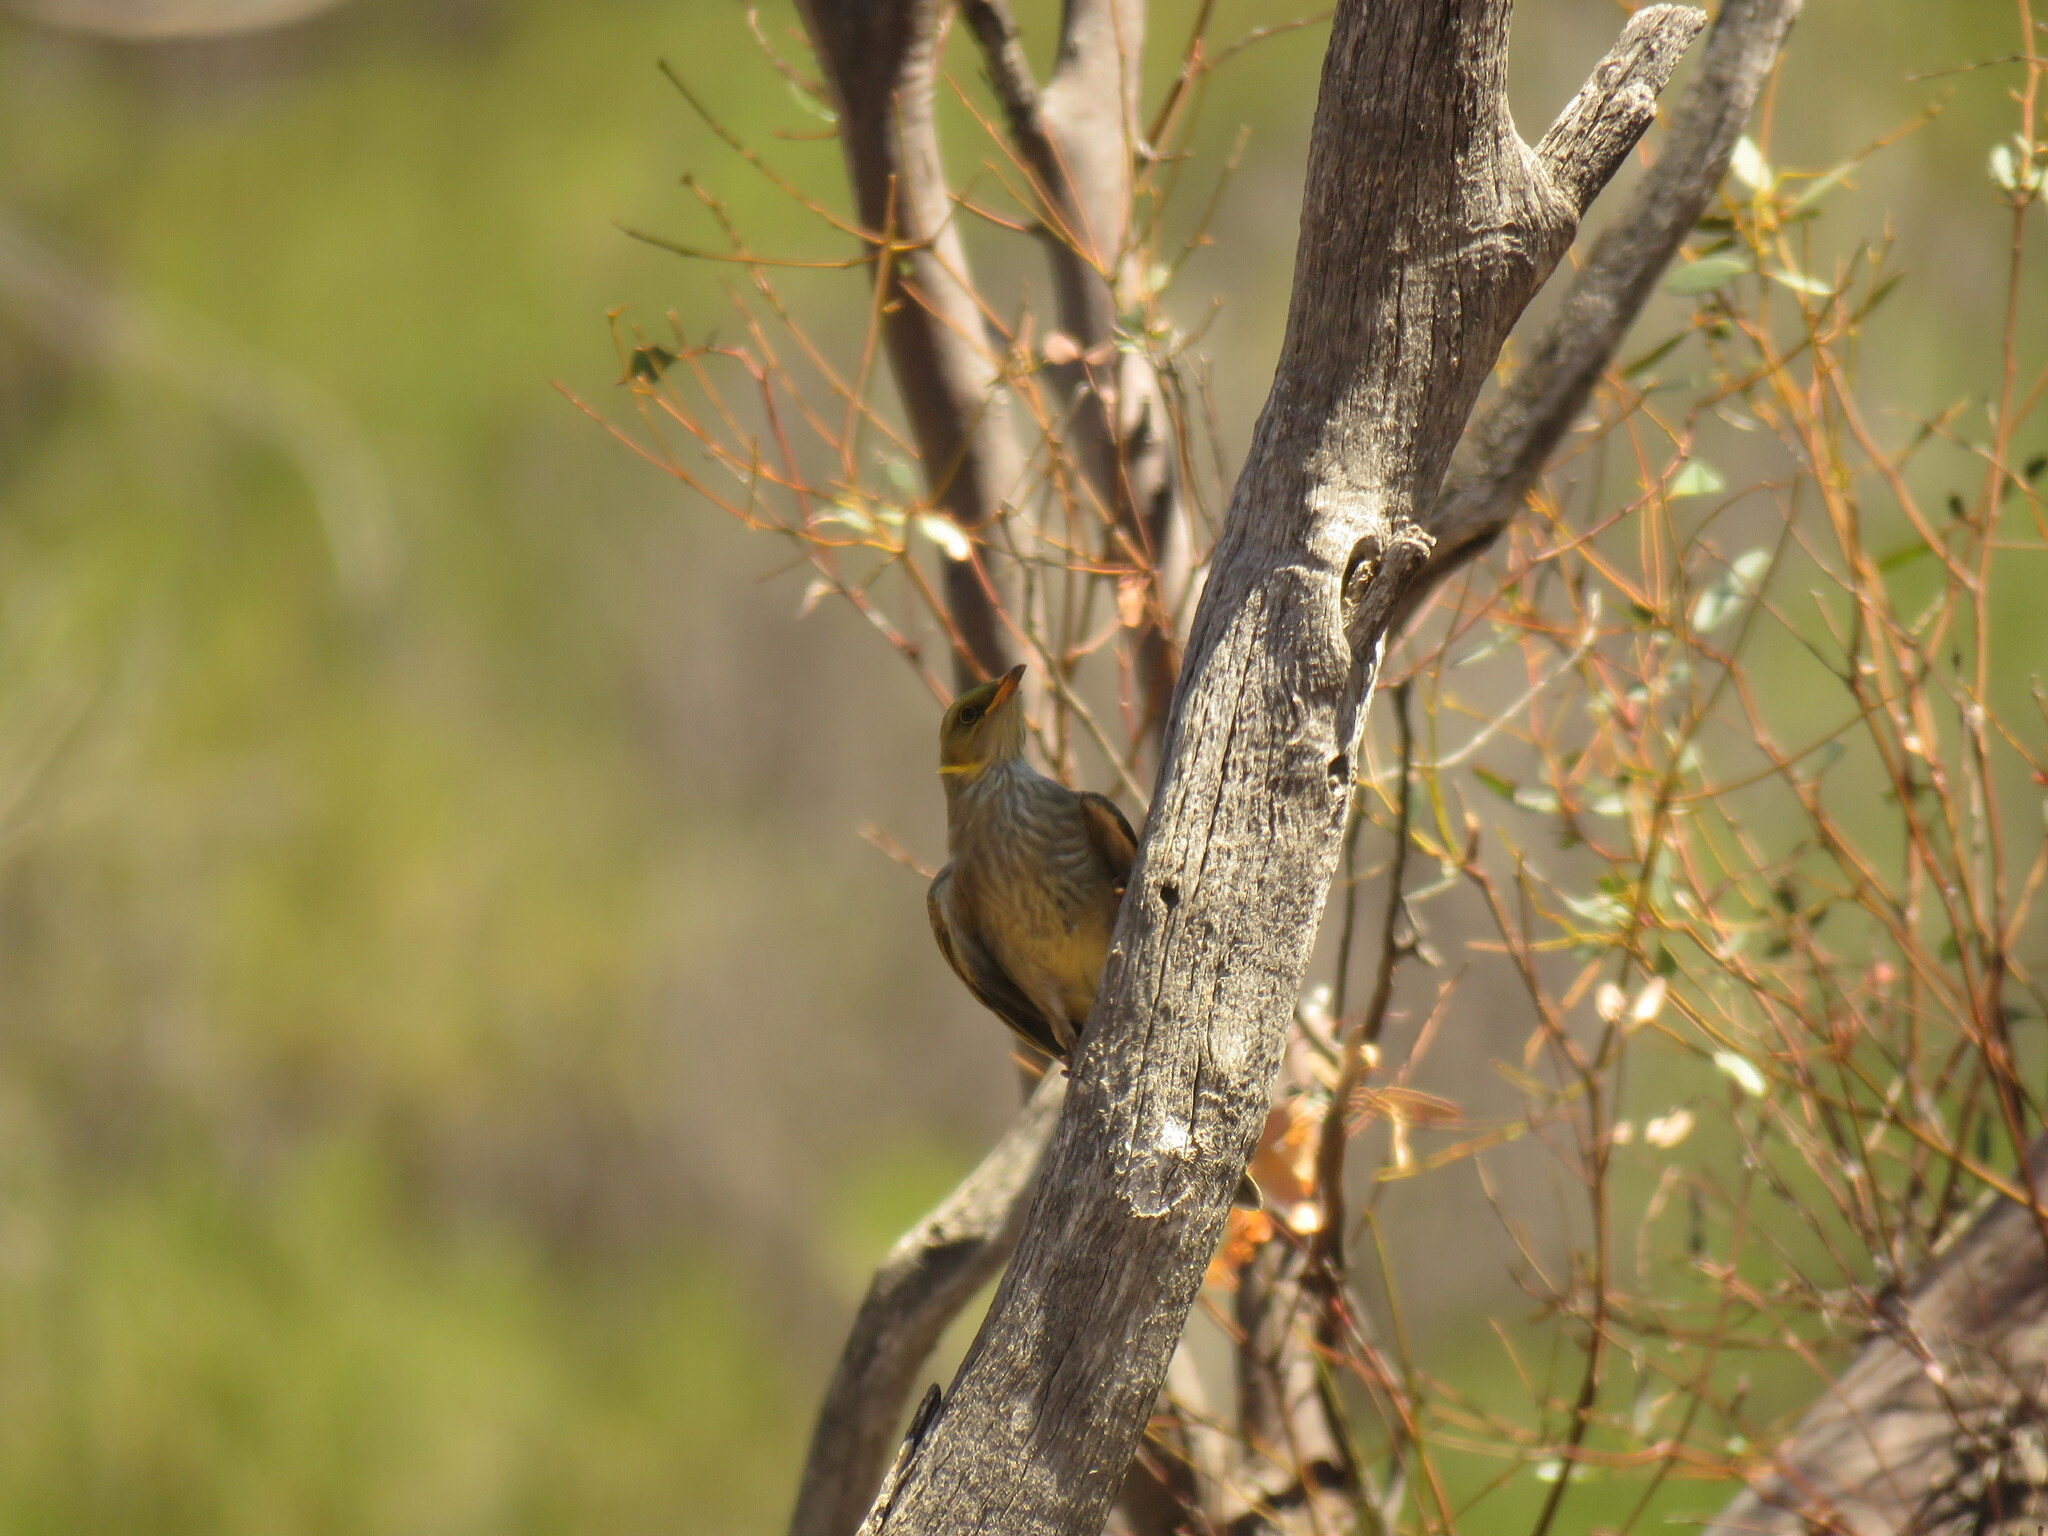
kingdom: Animalia
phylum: Chordata
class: Aves
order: Passeriformes
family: Meliphagidae
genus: Ptilotula
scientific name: Ptilotula ornata
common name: Yellow-plumed honeyeater
